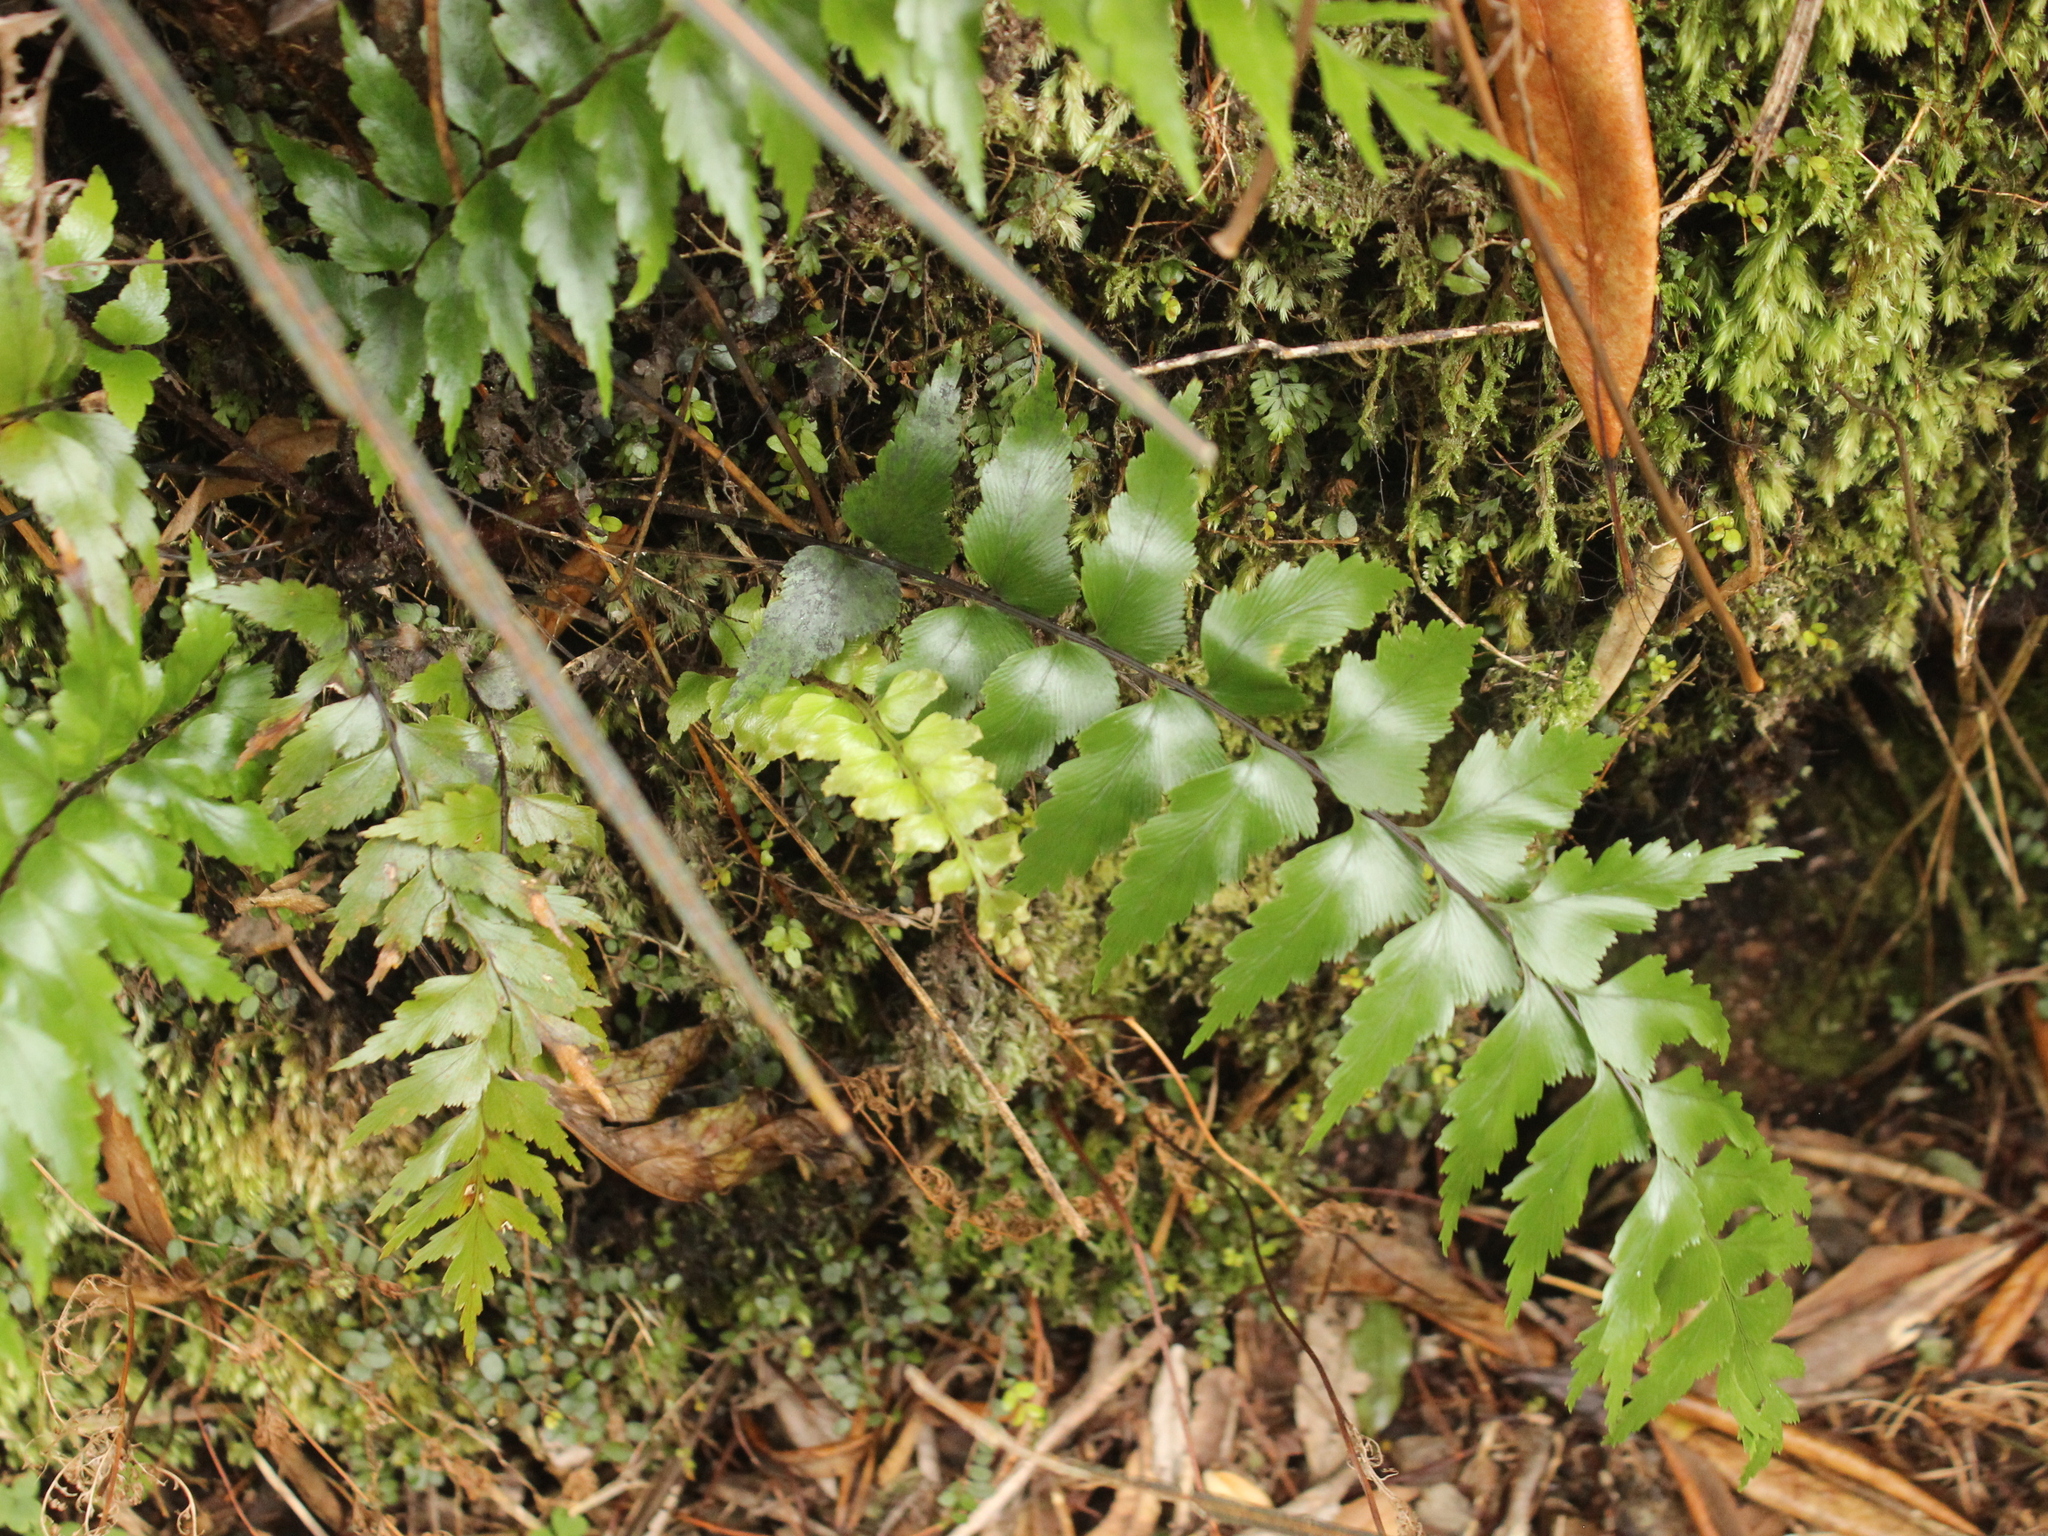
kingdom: Plantae
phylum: Tracheophyta
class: Polypodiopsida
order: Polypodiales
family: Aspleniaceae
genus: Asplenium
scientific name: Asplenium polyodon
